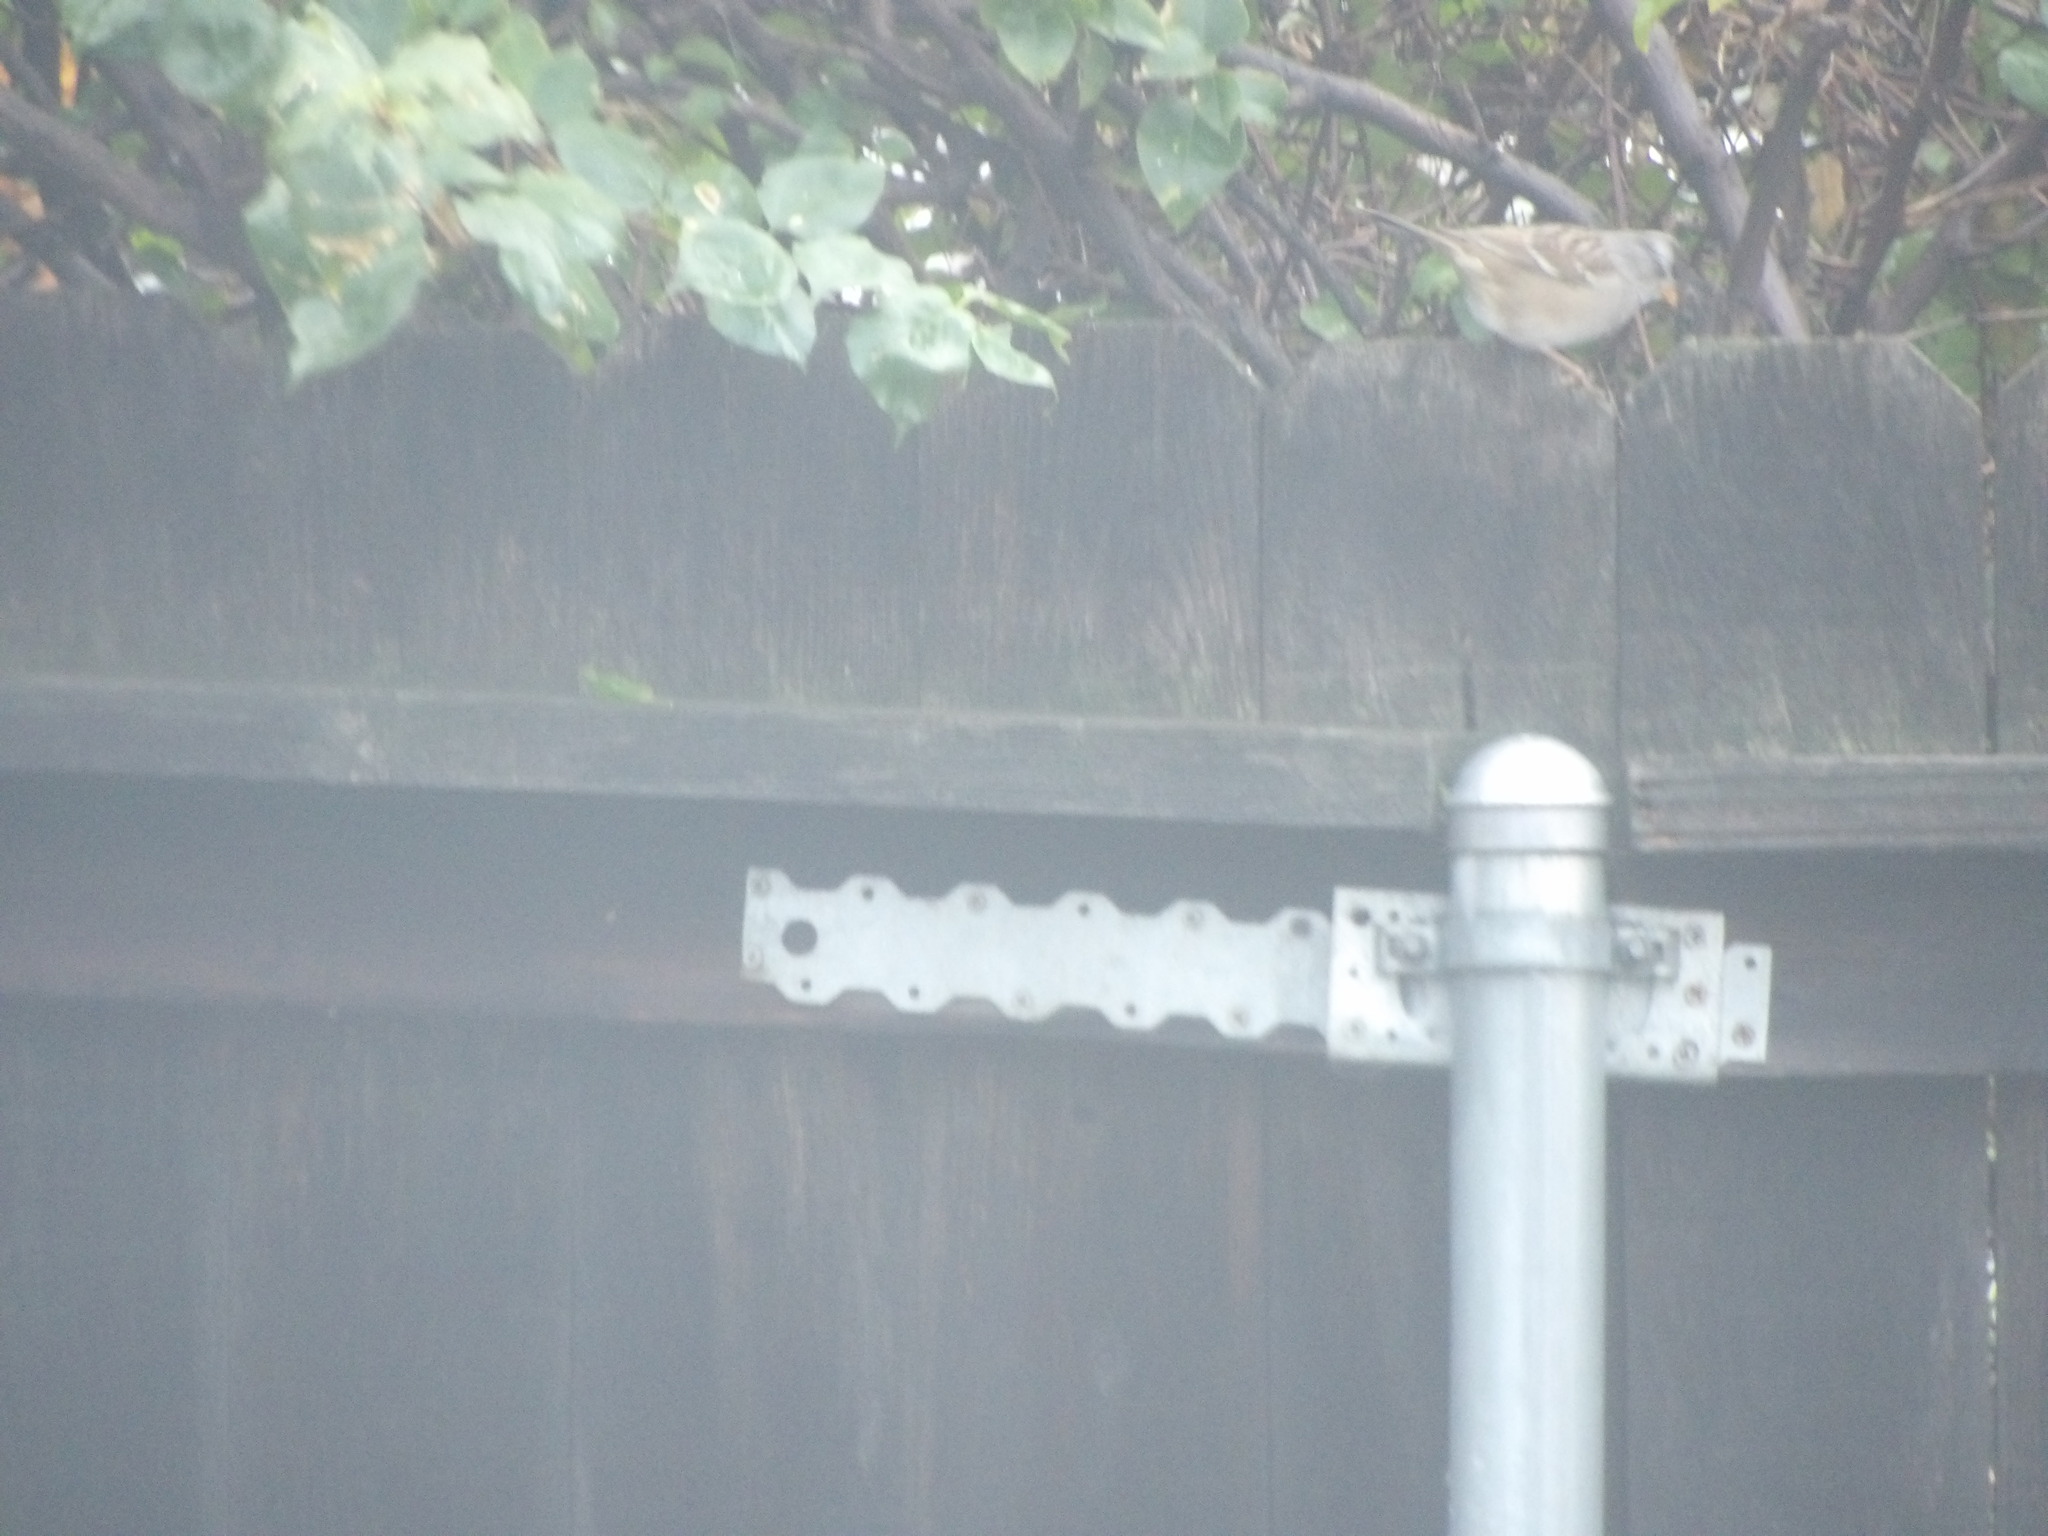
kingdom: Animalia
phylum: Chordata
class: Aves
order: Passeriformes
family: Passerellidae
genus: Zonotrichia
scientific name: Zonotrichia leucophrys
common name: White-crowned sparrow
